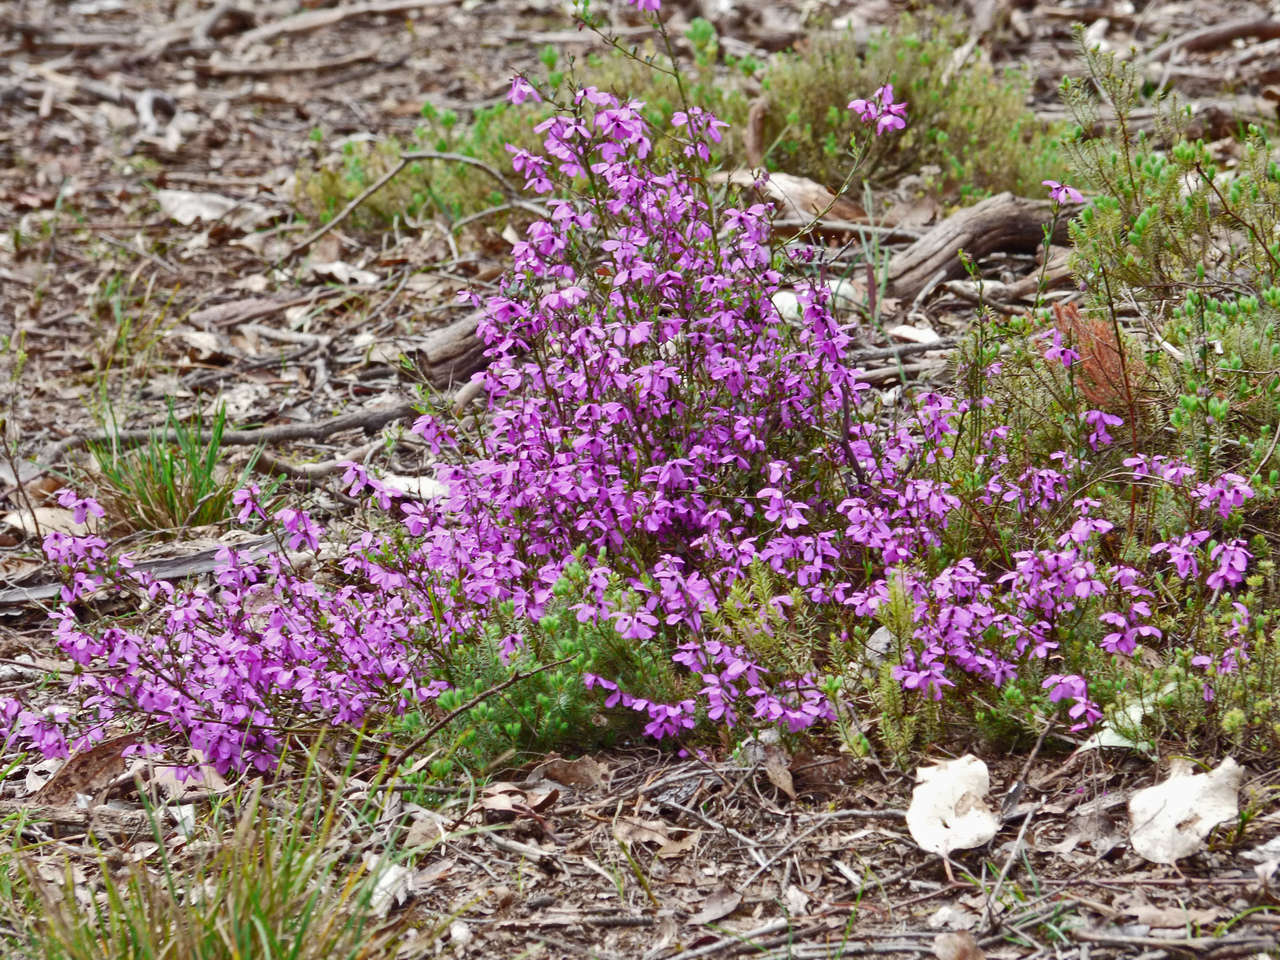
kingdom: Plantae
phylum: Tracheophyta
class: Magnoliopsida
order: Oxalidales
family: Elaeocarpaceae
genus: Tetratheca
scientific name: Tetratheca ciliata
